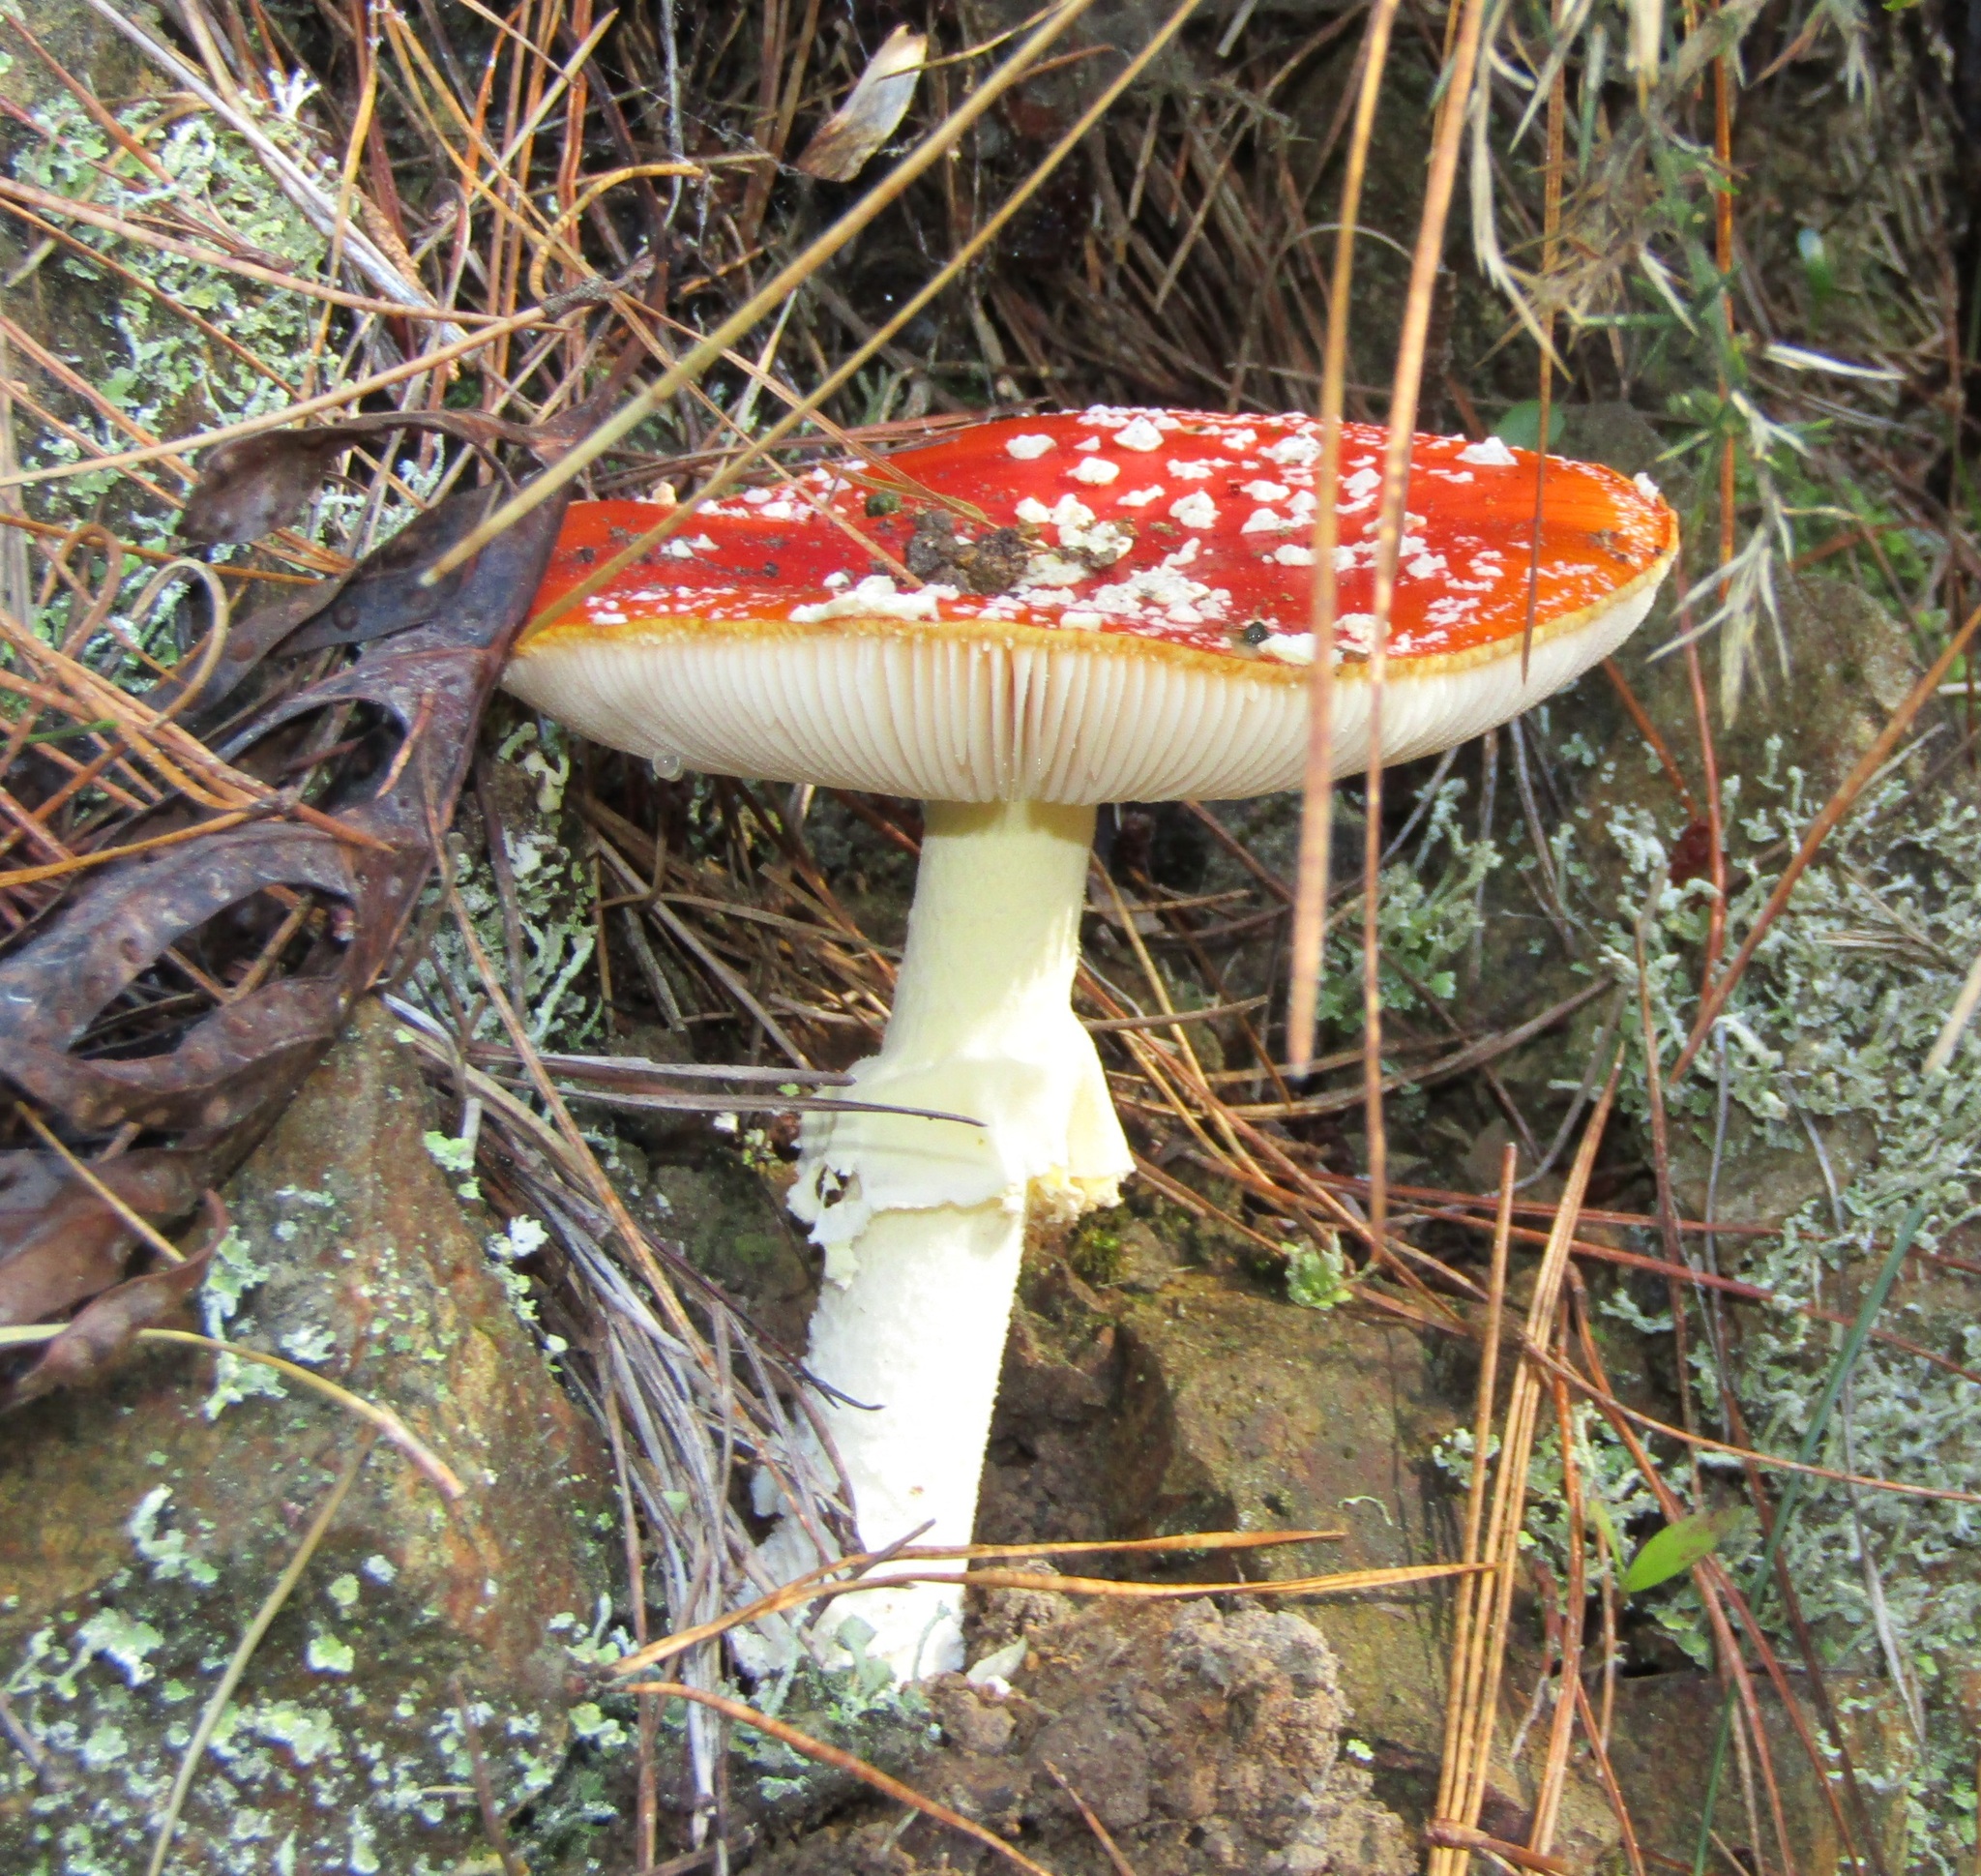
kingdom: Fungi
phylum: Basidiomycota
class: Agaricomycetes
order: Agaricales
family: Amanitaceae
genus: Amanita
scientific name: Amanita muscaria
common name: Fly agaric
